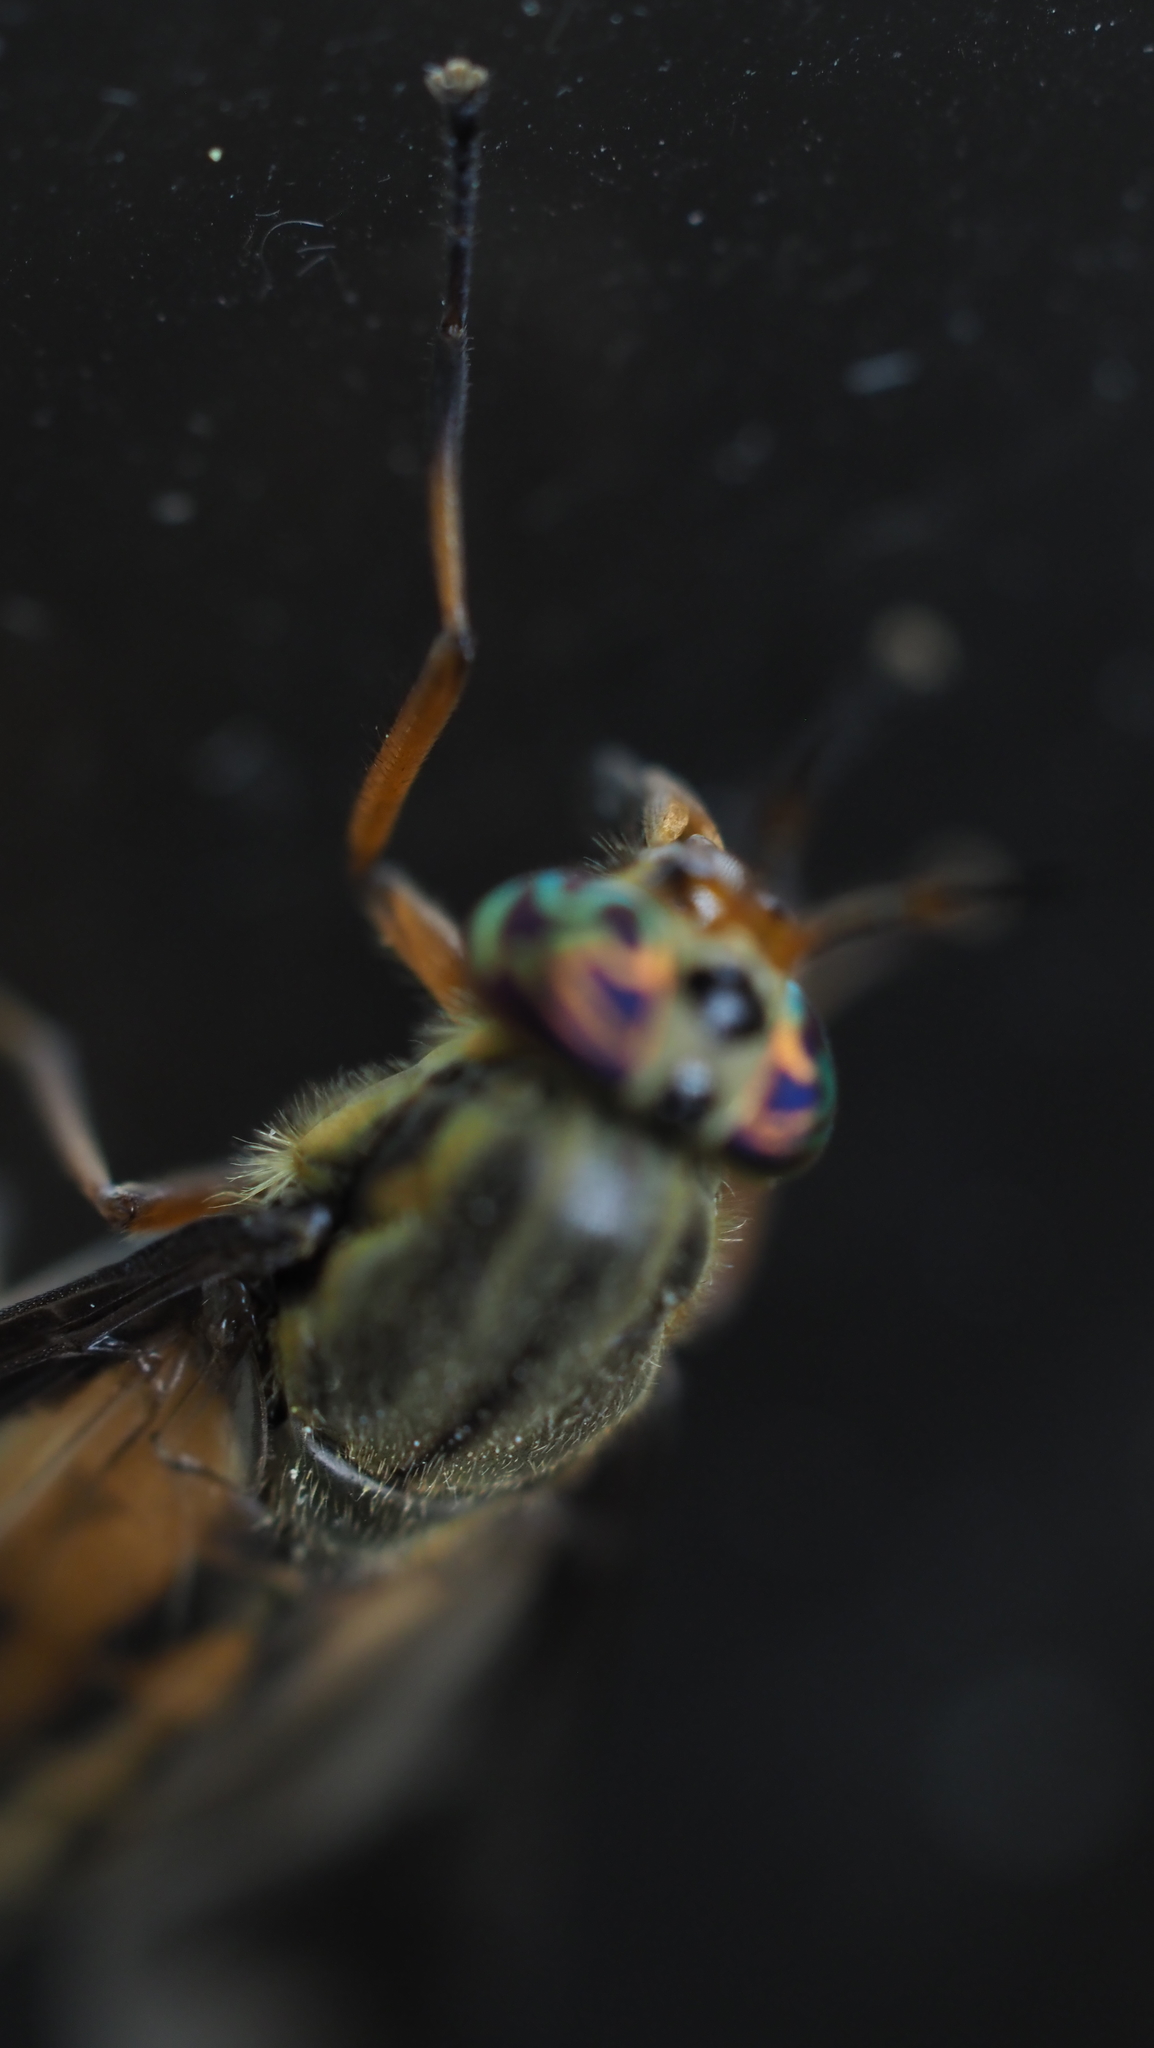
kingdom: Animalia
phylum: Arthropoda
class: Insecta
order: Diptera
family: Tabanidae
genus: Chrysops
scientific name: Chrysops striatus
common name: Striated deer fly
